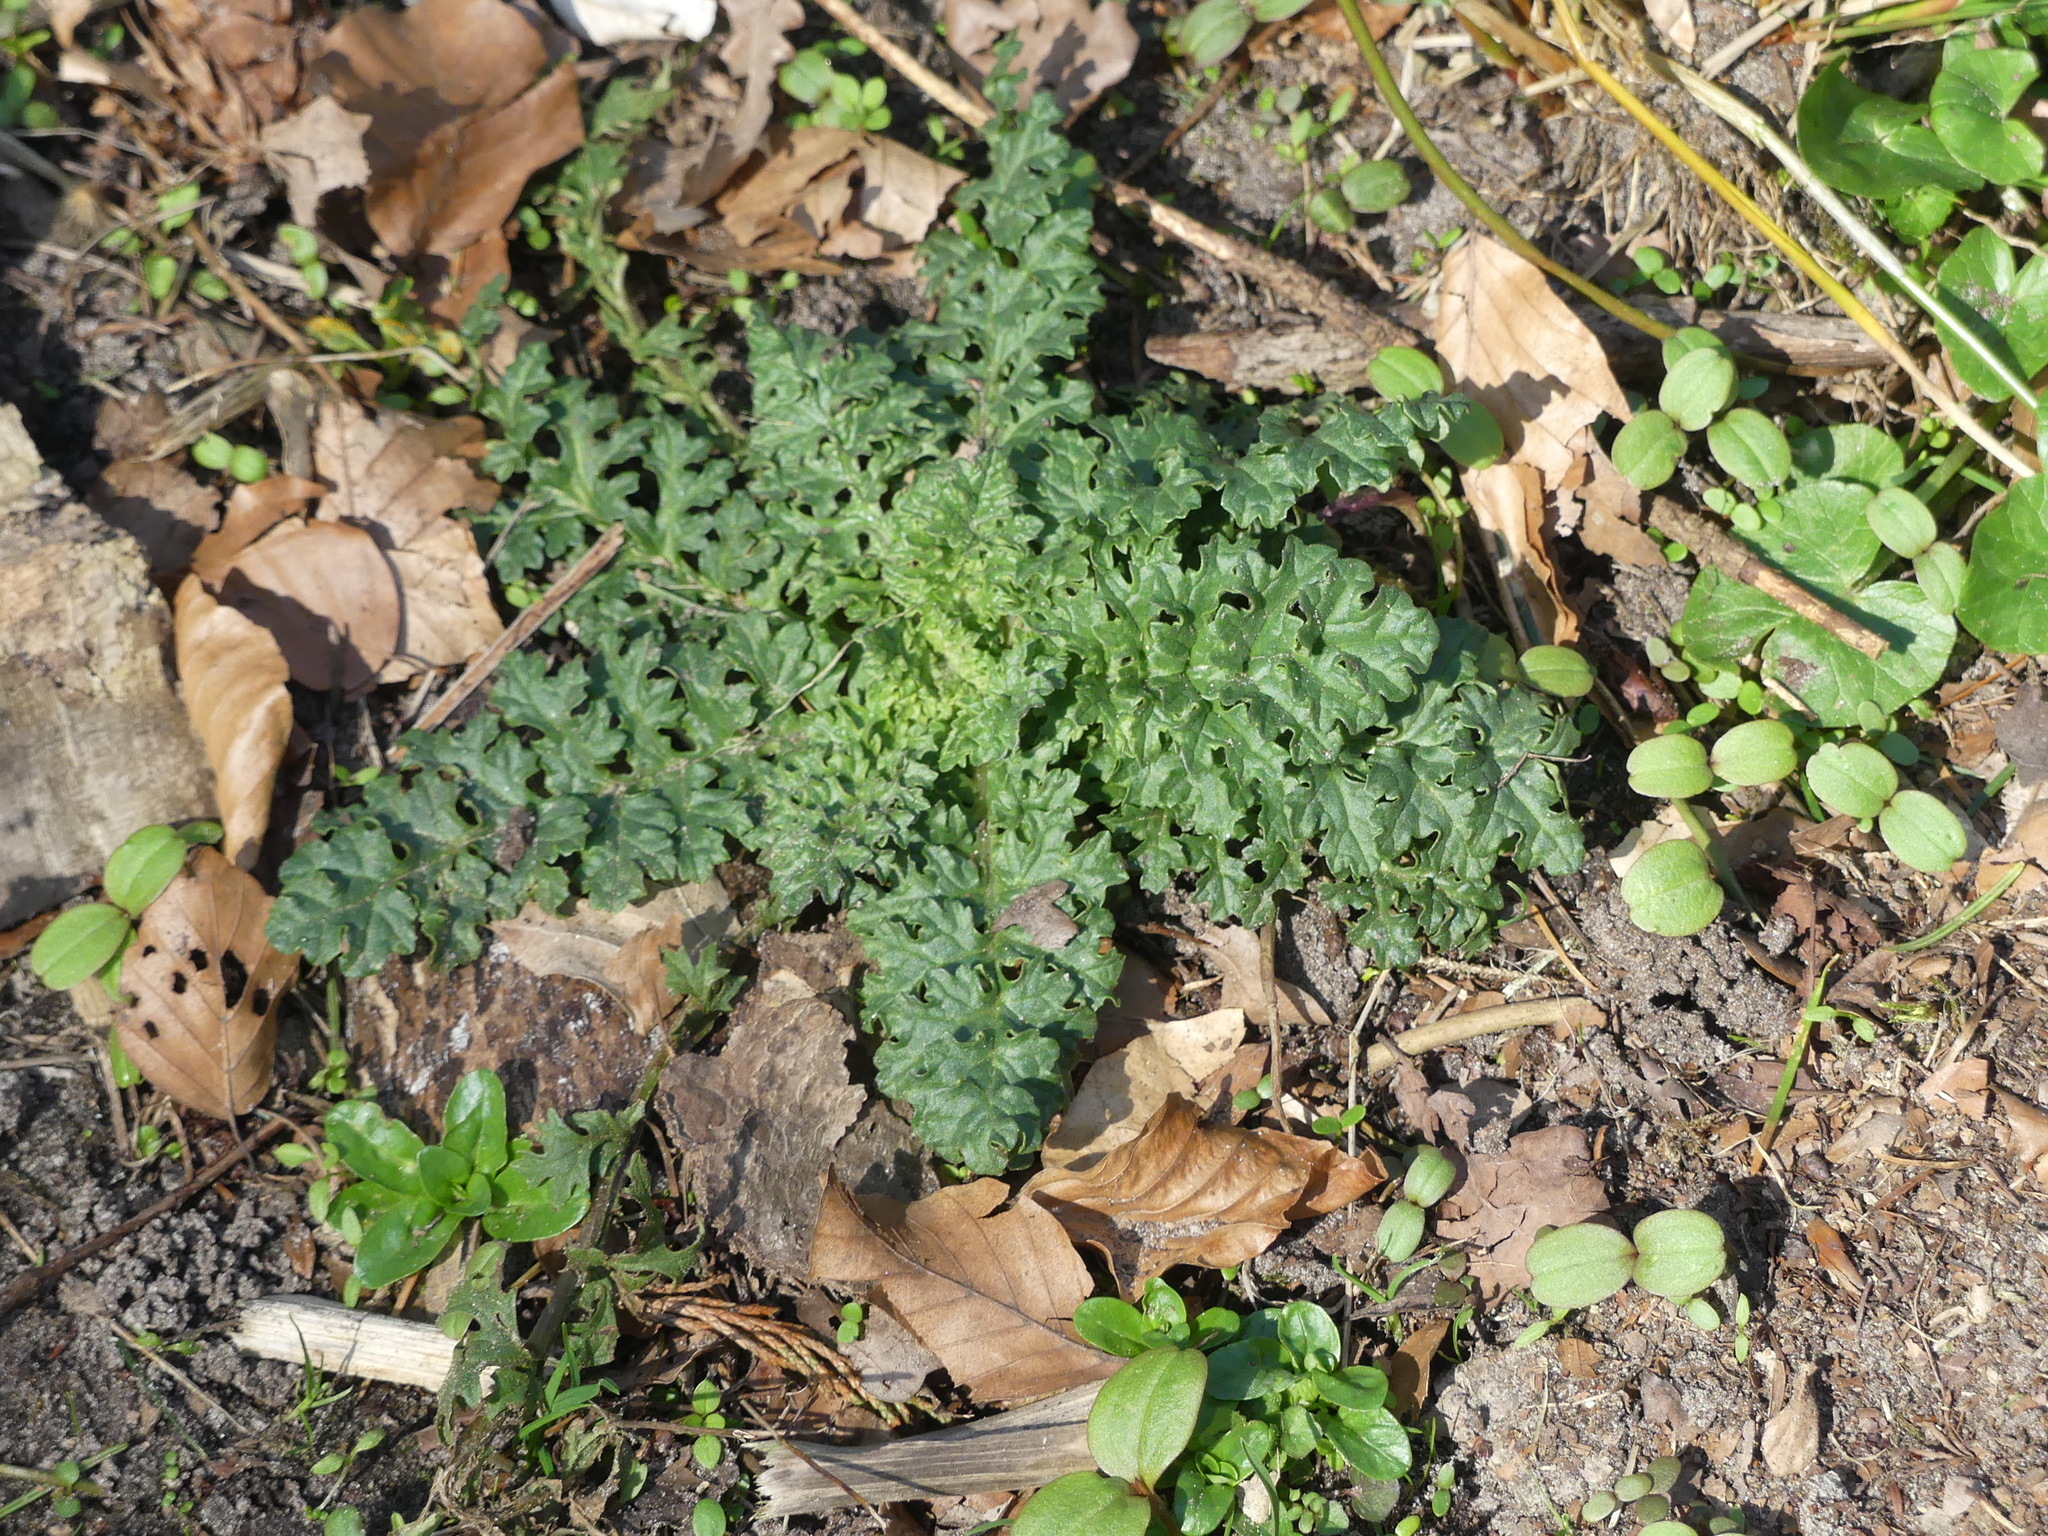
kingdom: Plantae
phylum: Tracheophyta
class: Magnoliopsida
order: Asterales
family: Asteraceae
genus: Jacobaea
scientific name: Jacobaea vulgaris
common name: Stinking willie
